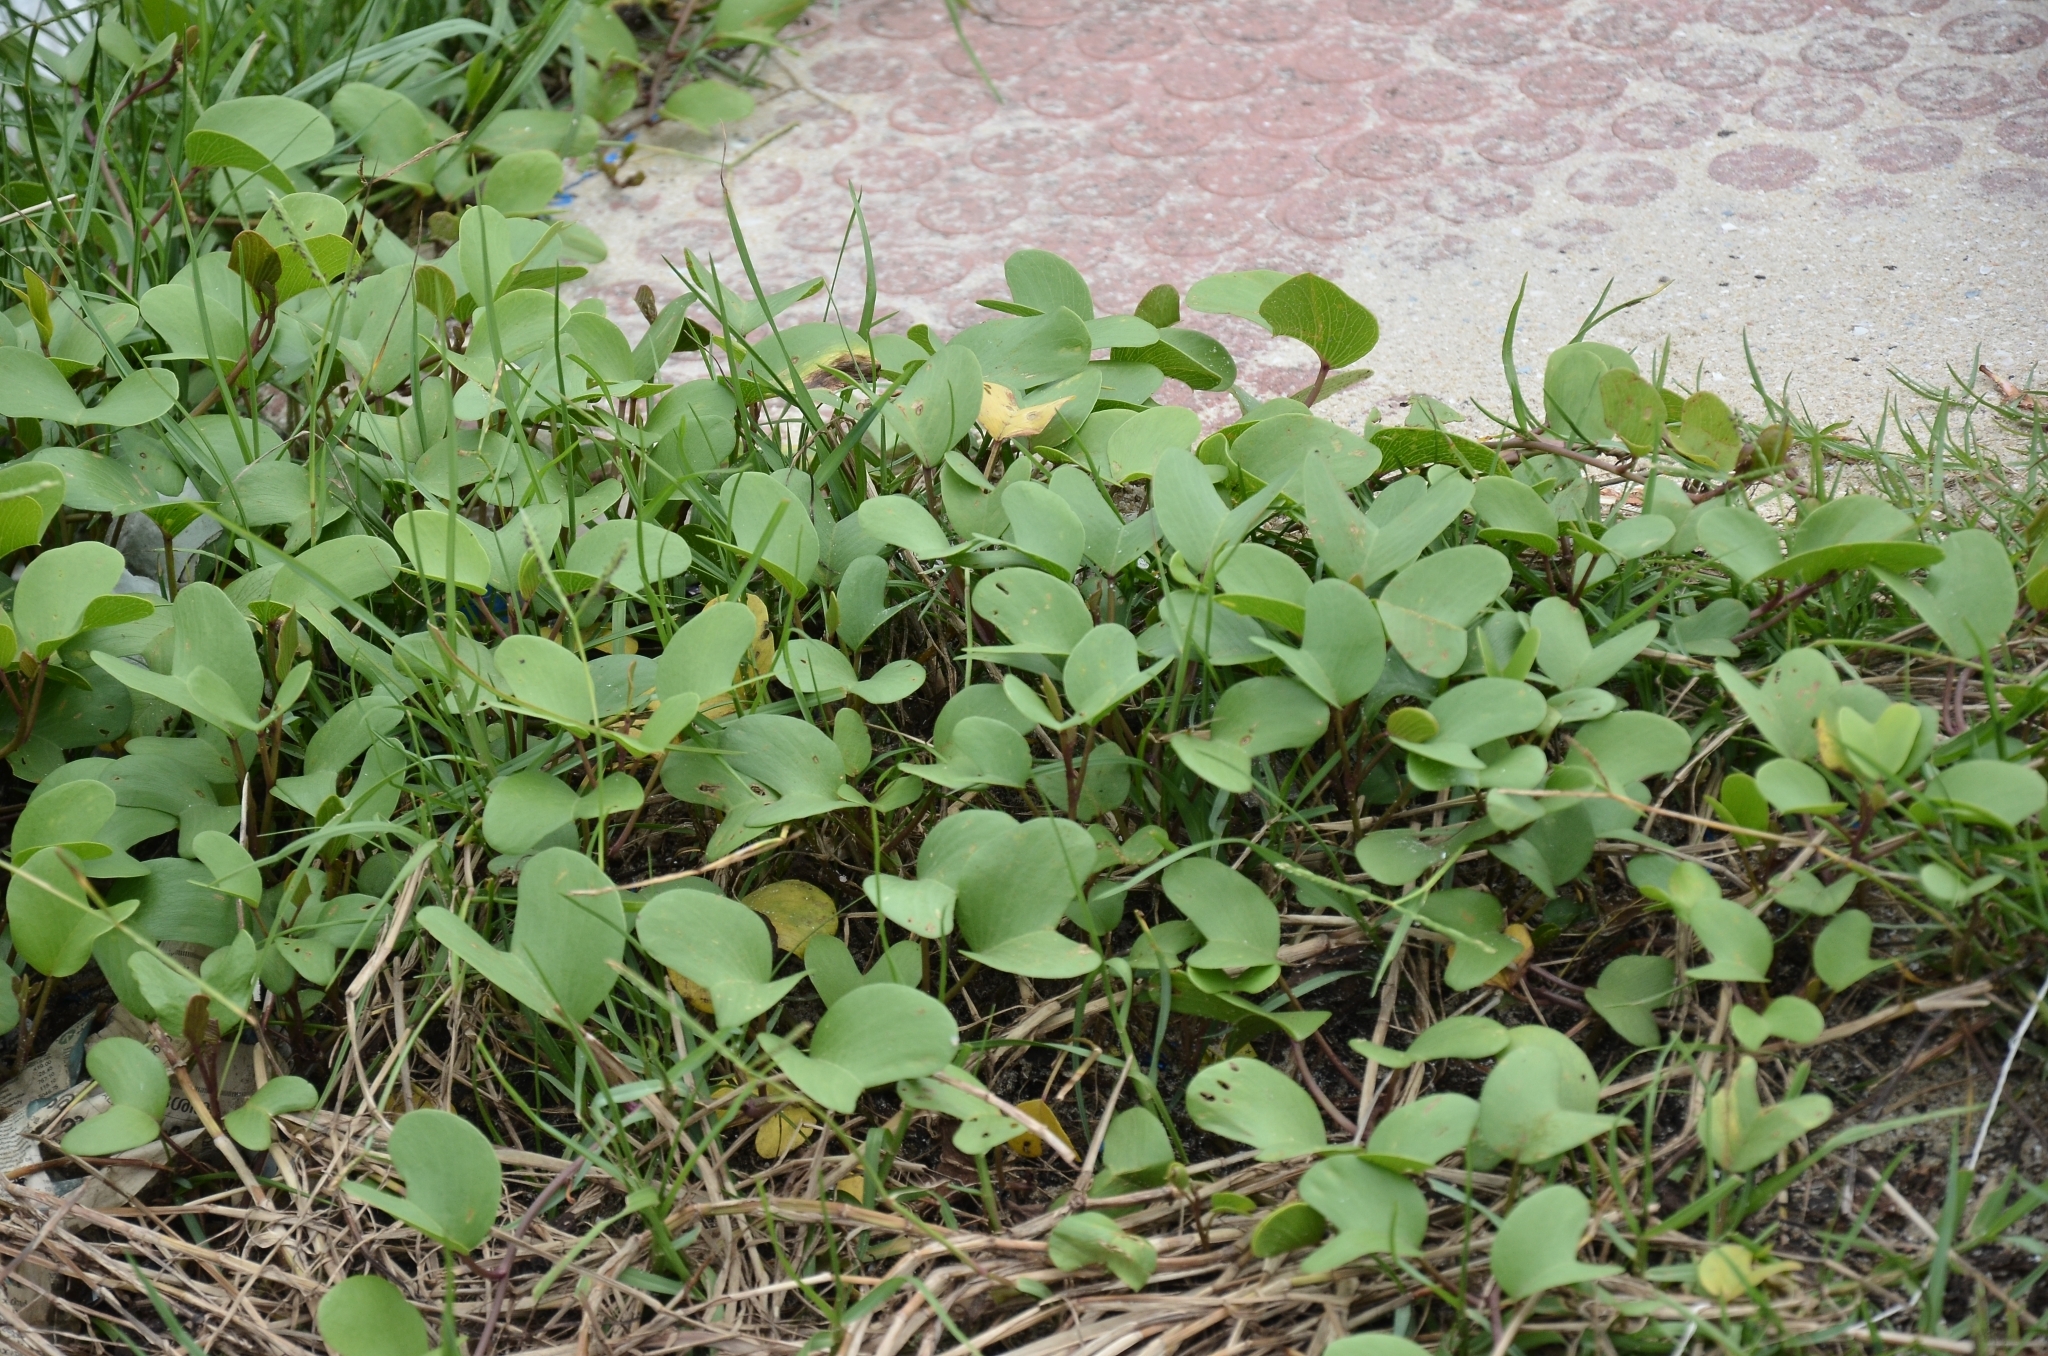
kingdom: Plantae
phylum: Tracheophyta
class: Magnoliopsida
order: Solanales
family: Convolvulaceae
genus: Ipomoea
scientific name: Ipomoea pes-caprae
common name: Beach morning glory
